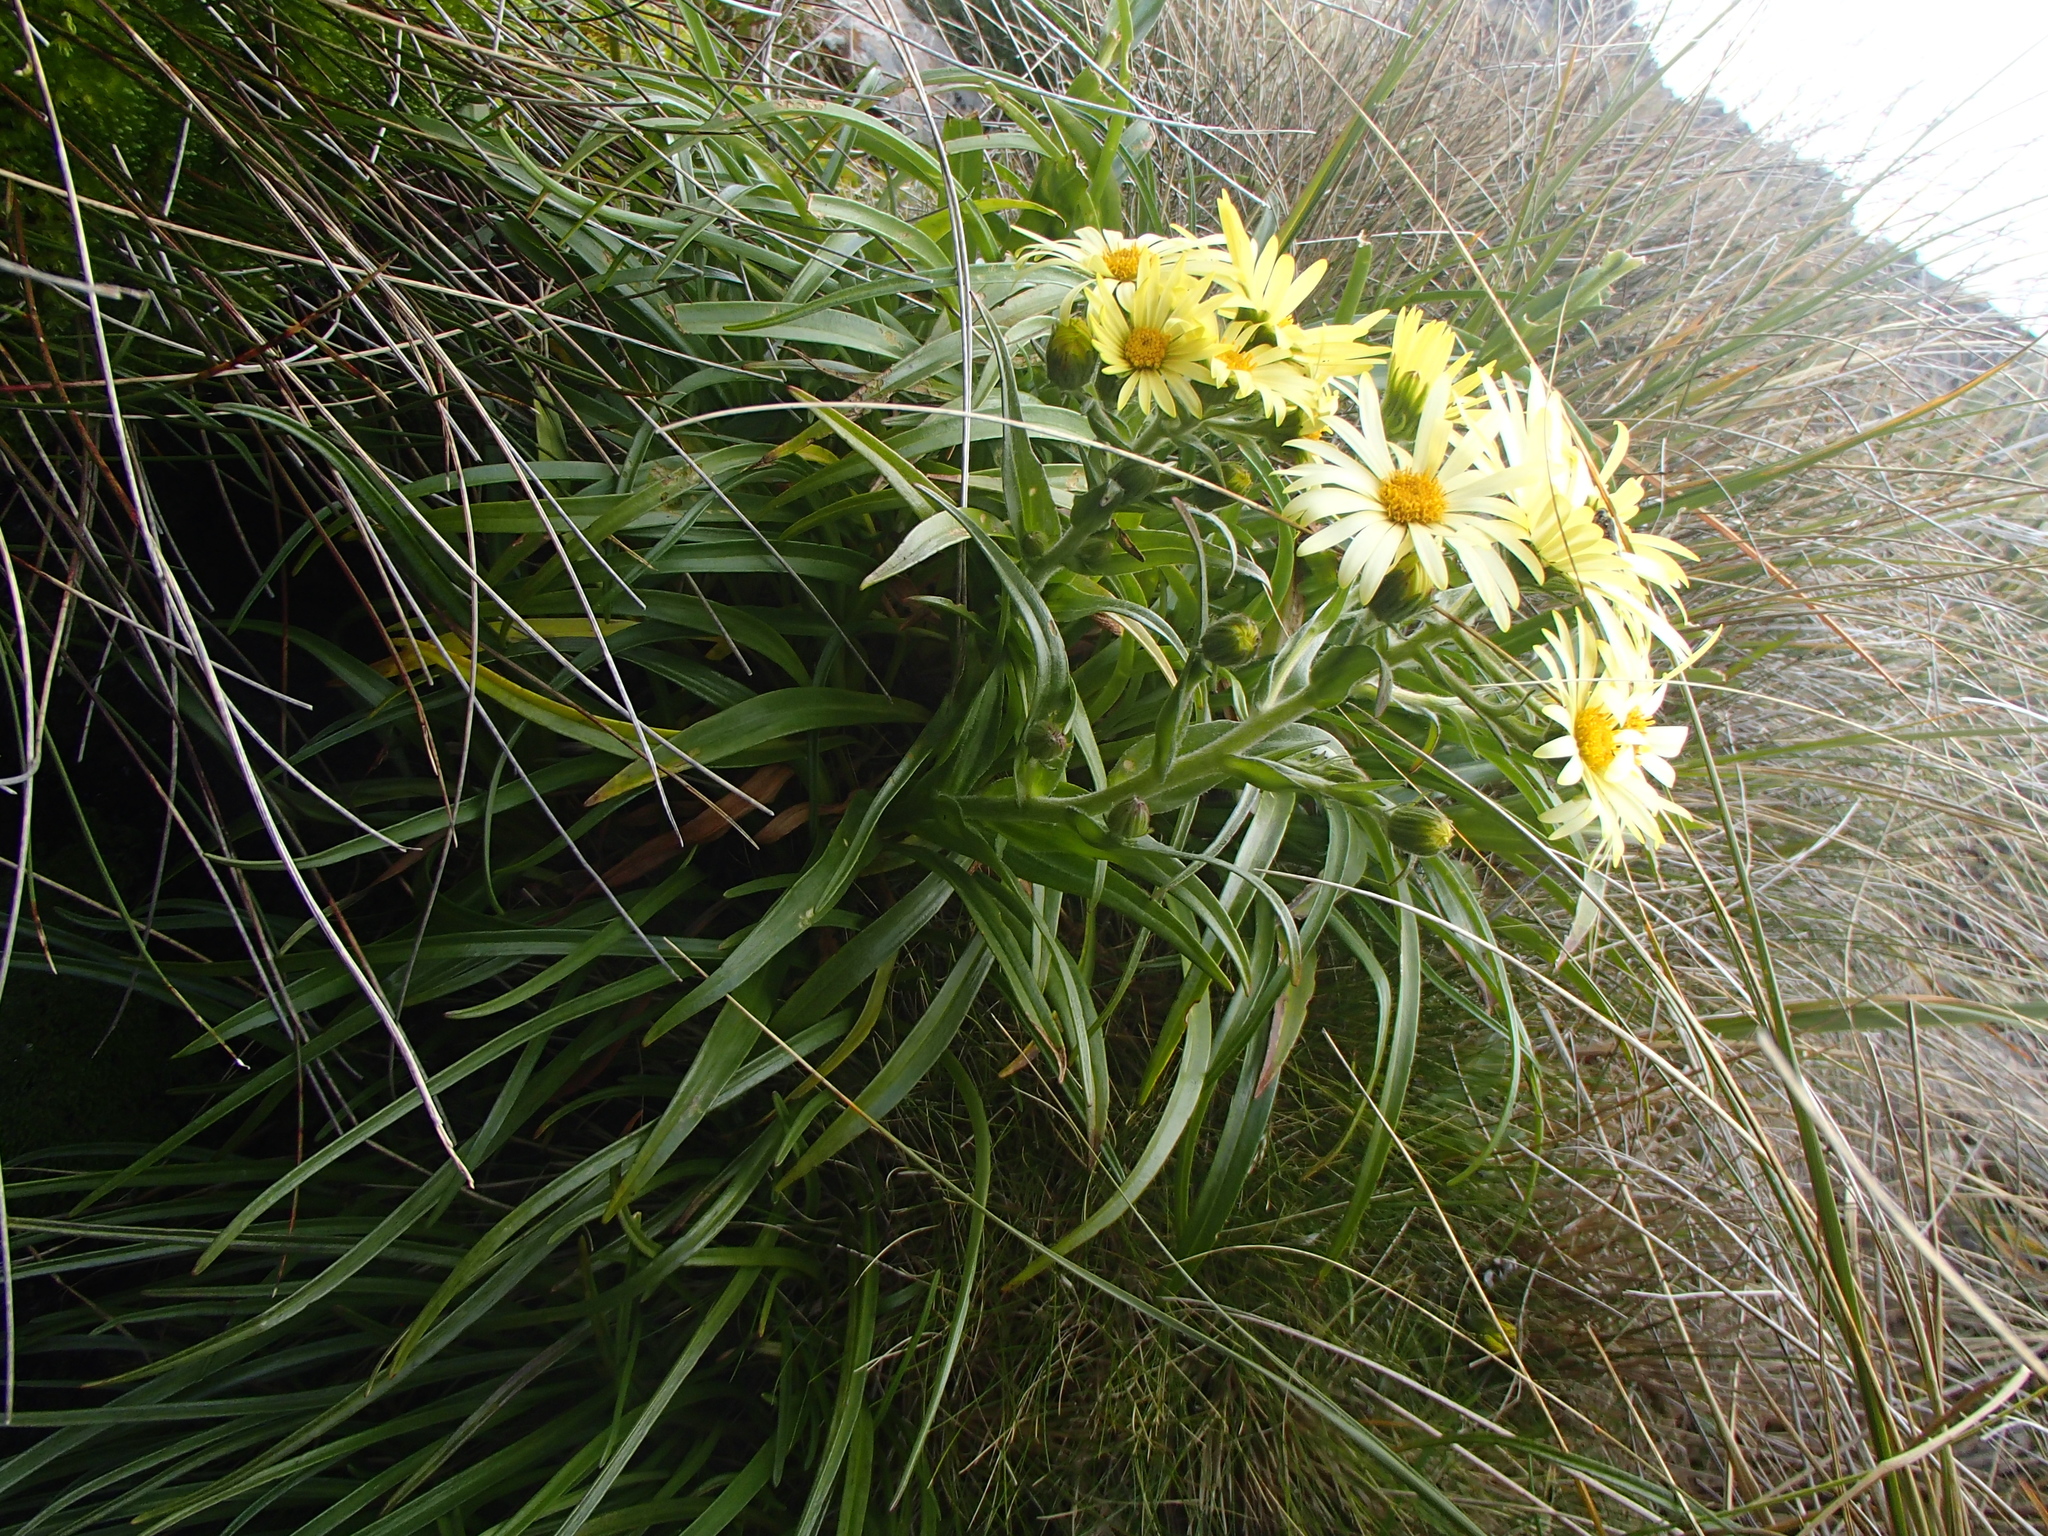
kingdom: Plantae
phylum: Tracheophyta
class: Magnoliopsida
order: Asterales
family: Asteraceae
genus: Dolichoglottis
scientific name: Dolichoglottis
